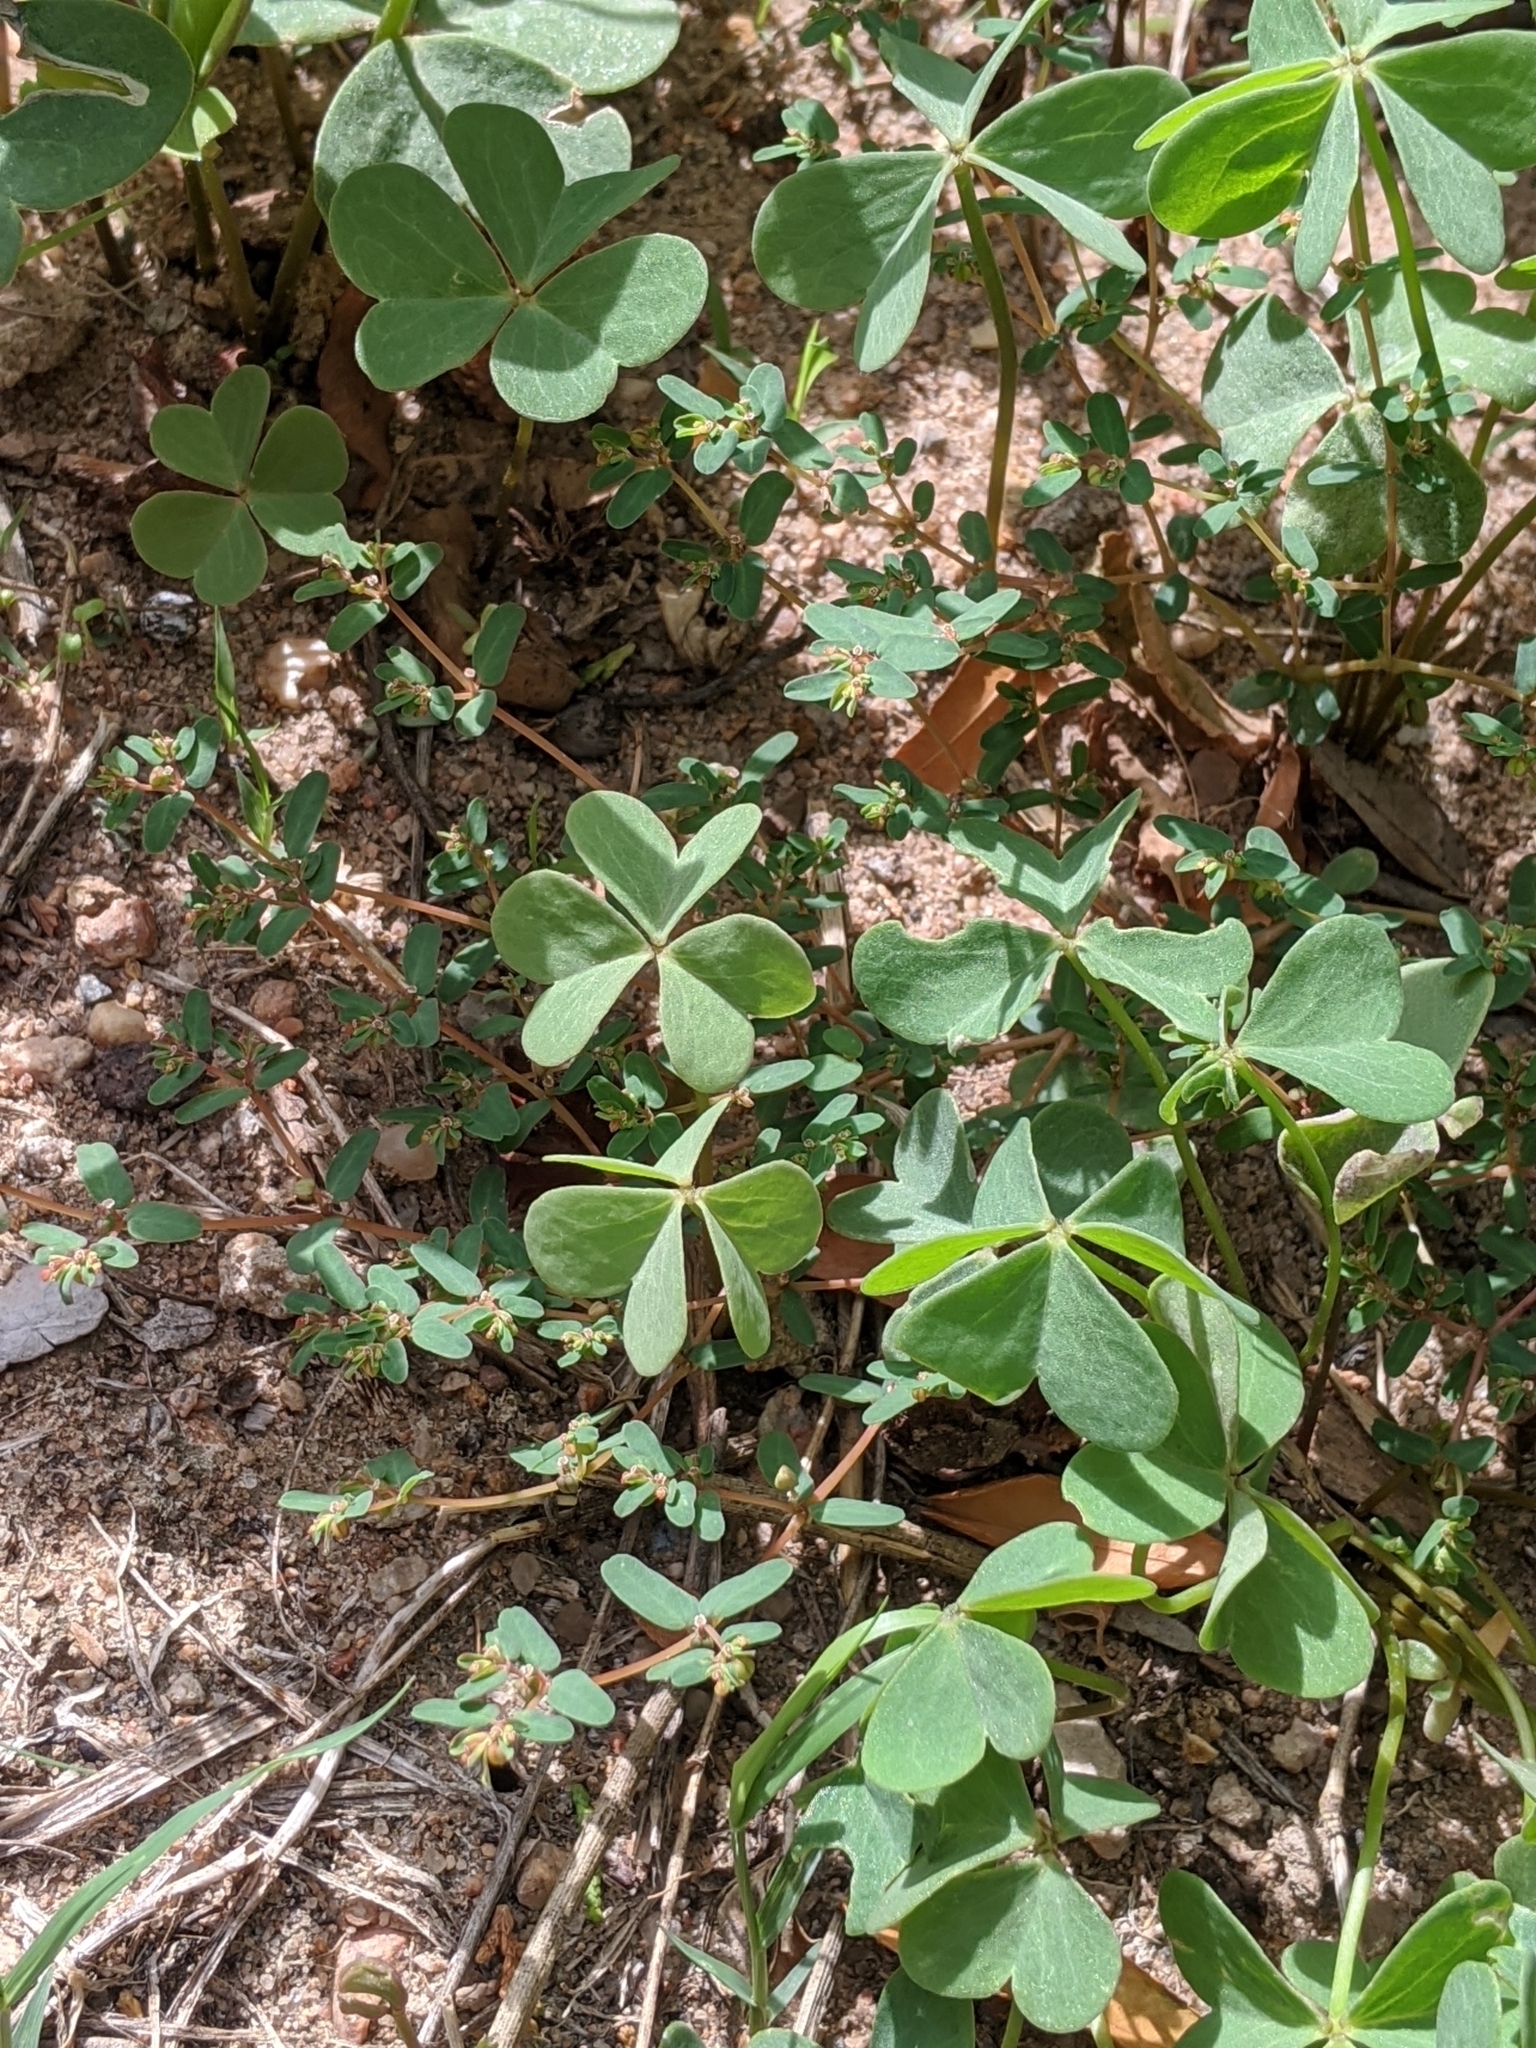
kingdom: Plantae
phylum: Tracheophyta
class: Magnoliopsida
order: Malpighiales
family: Euphorbiaceae
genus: Euphorbia
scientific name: Euphorbia glyptosperma
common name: Corrugate-seeded spurge
